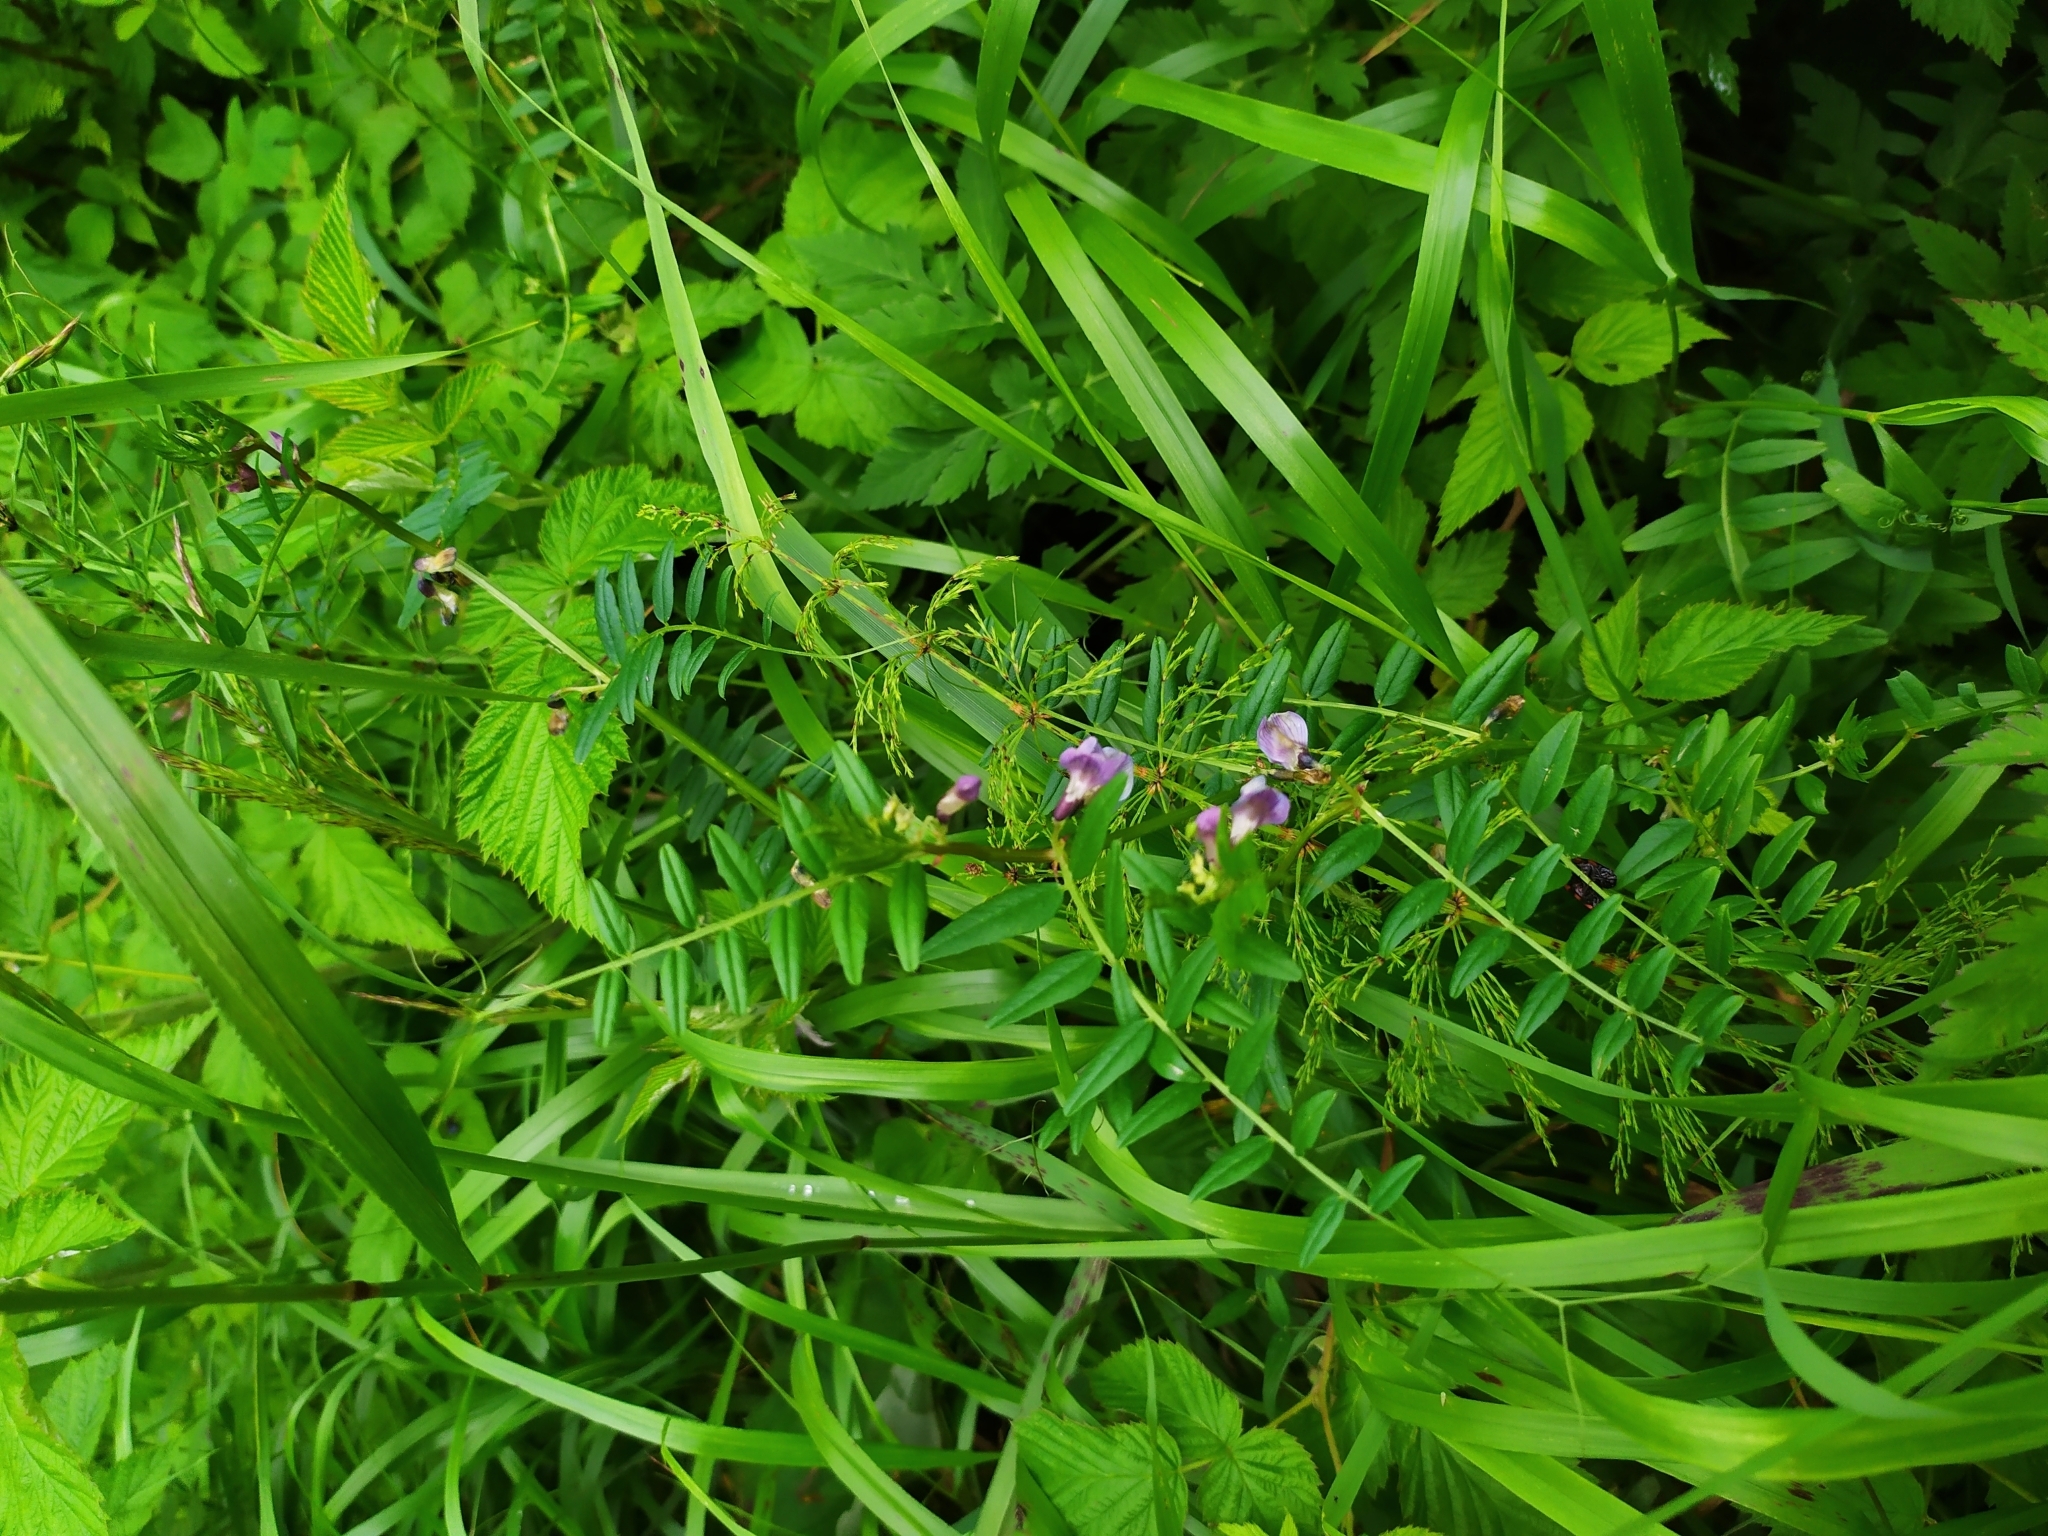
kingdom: Plantae
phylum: Tracheophyta
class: Magnoliopsida
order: Fabales
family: Fabaceae
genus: Vicia
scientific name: Vicia sepium
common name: Bush vetch
